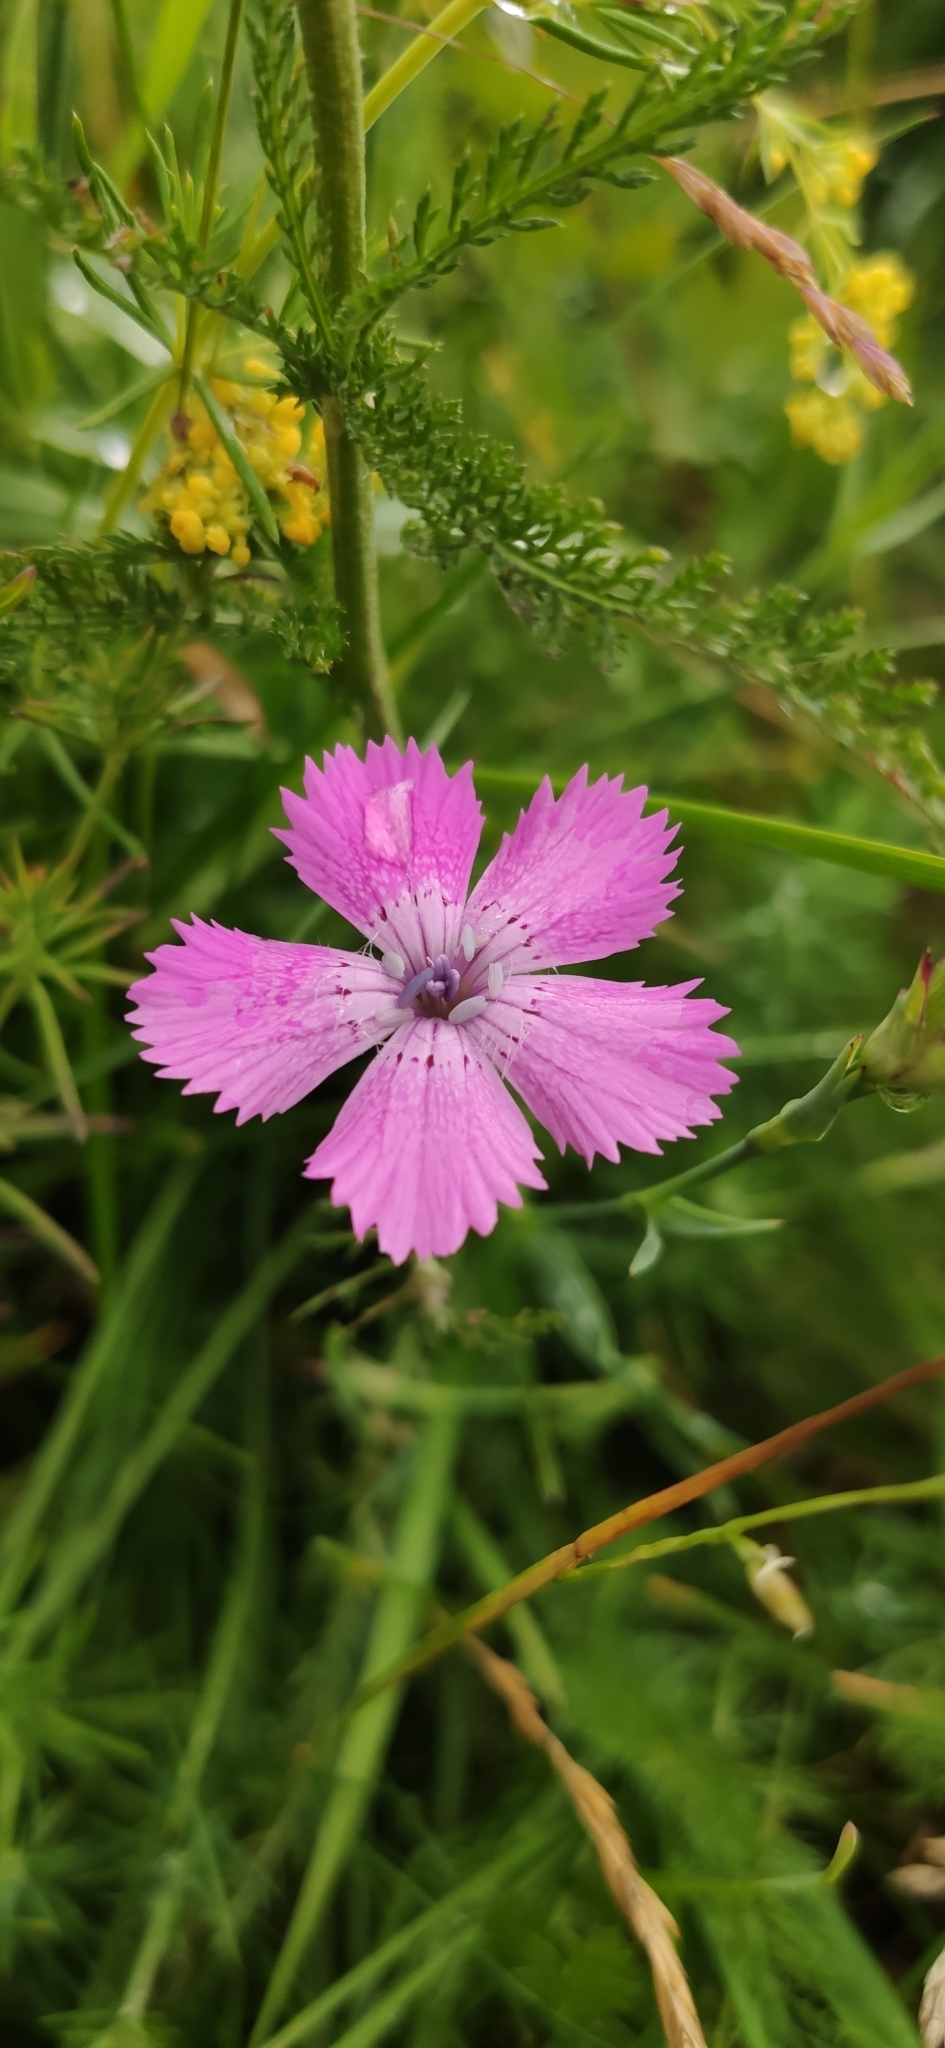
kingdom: Plantae
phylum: Tracheophyta
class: Magnoliopsida
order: Caryophyllales
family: Caryophyllaceae
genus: Dianthus
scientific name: Dianthus chinensis
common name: Rainbow pink
